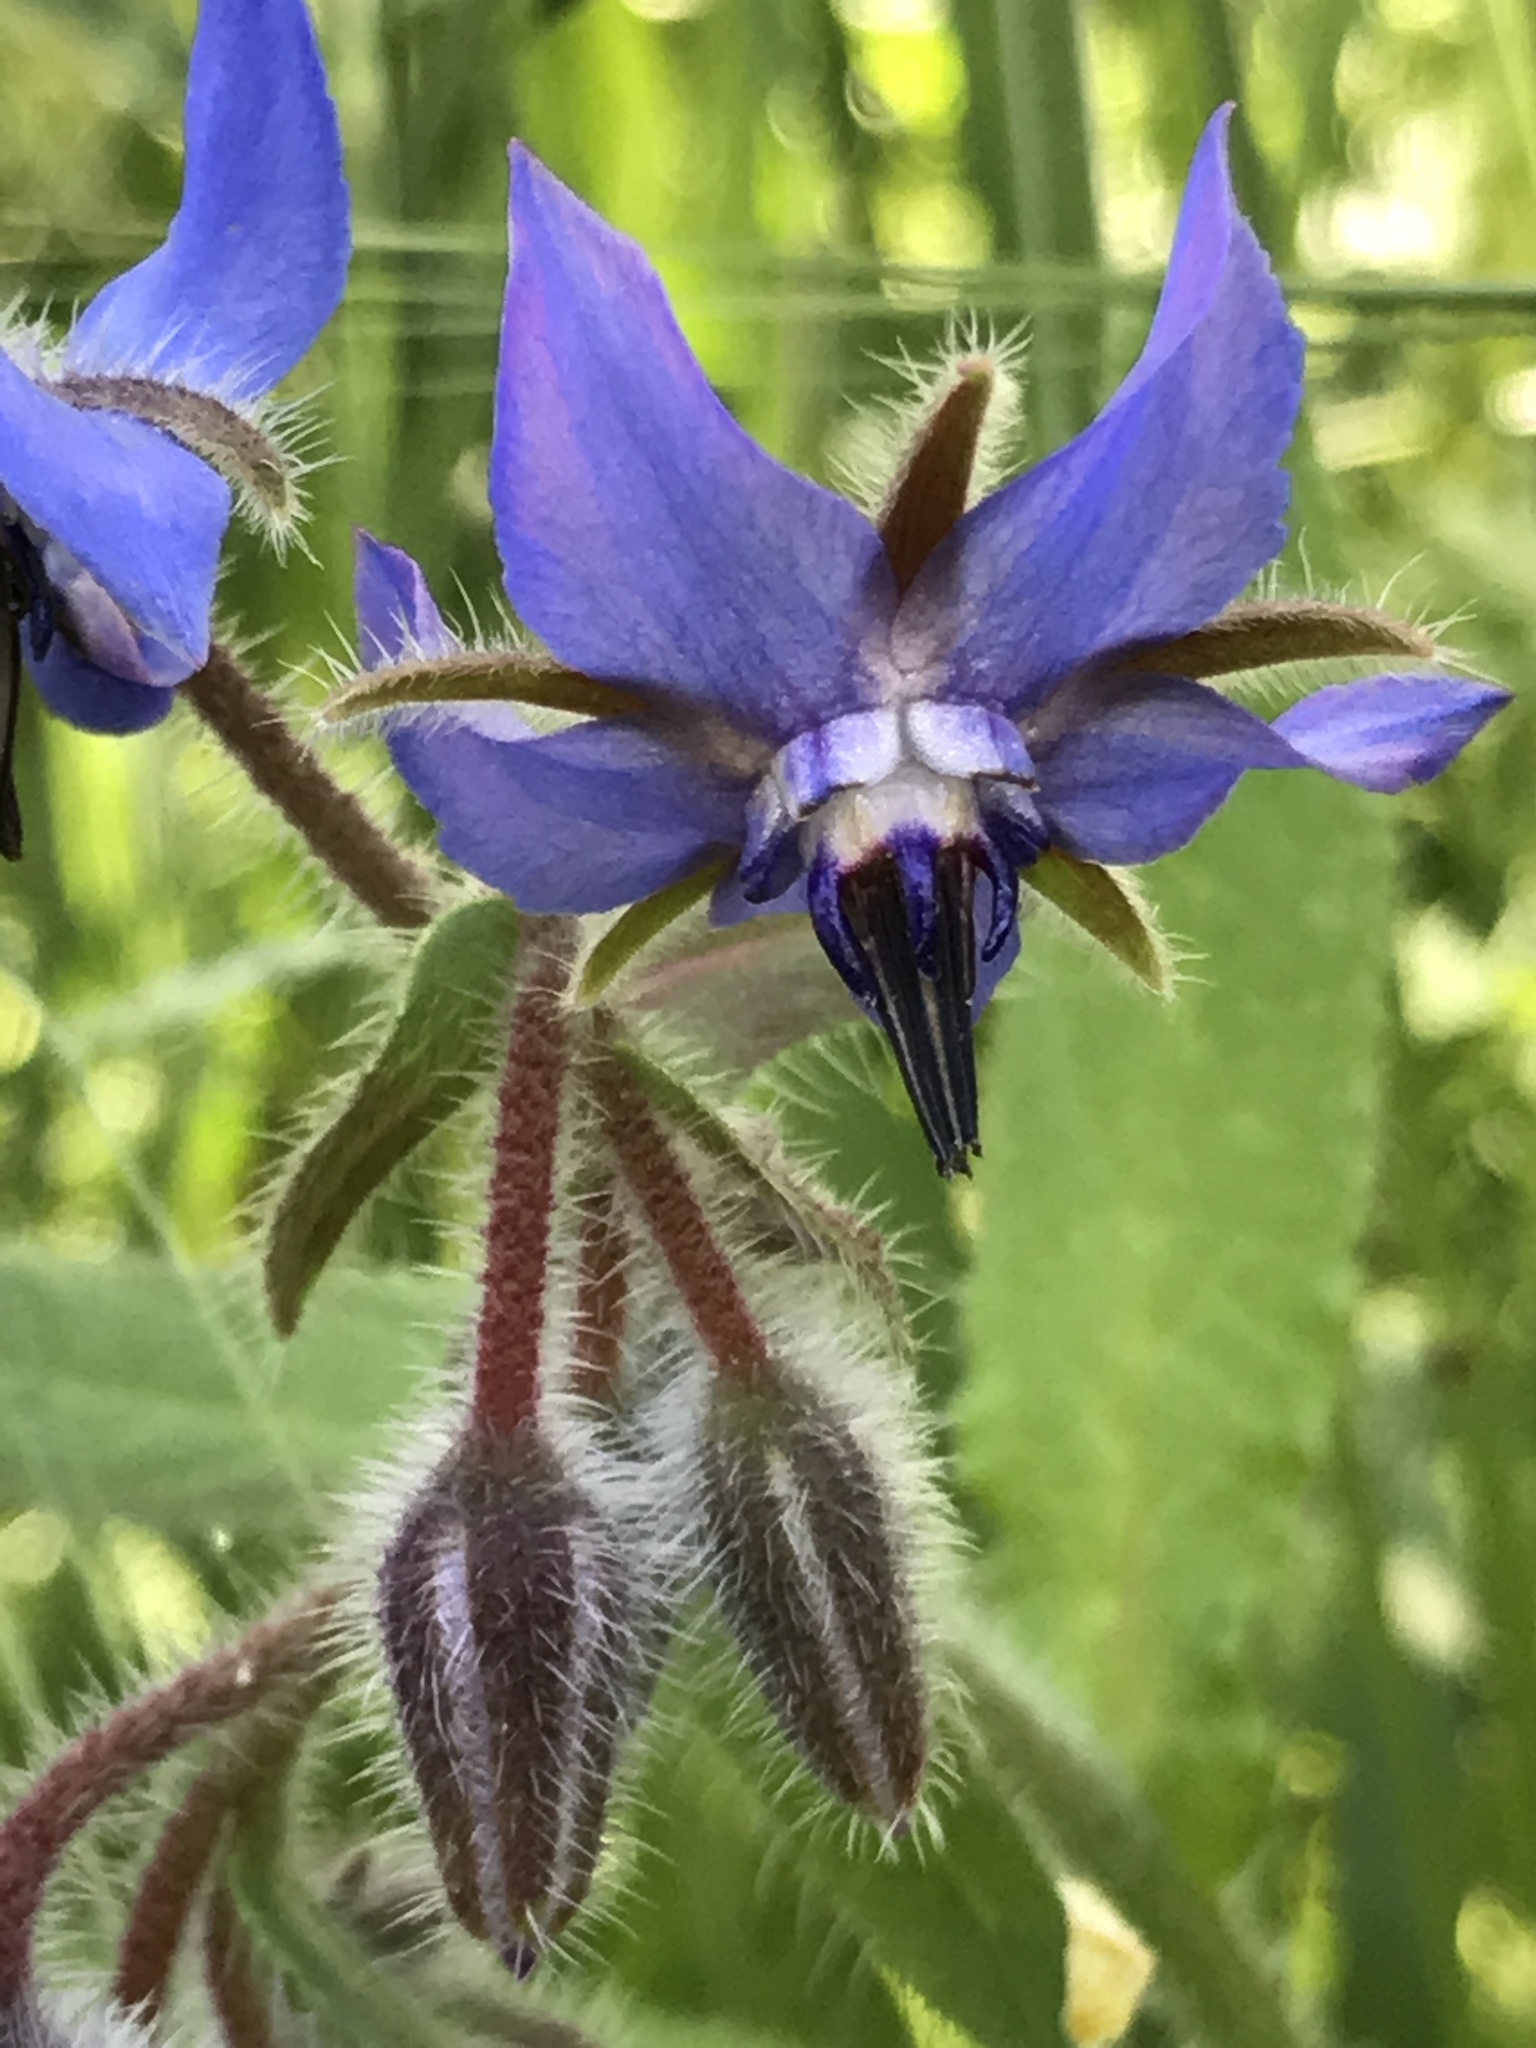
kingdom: Plantae
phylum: Tracheophyta
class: Magnoliopsida
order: Boraginales
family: Boraginaceae
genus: Borago
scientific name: Borago officinalis
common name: Borage
